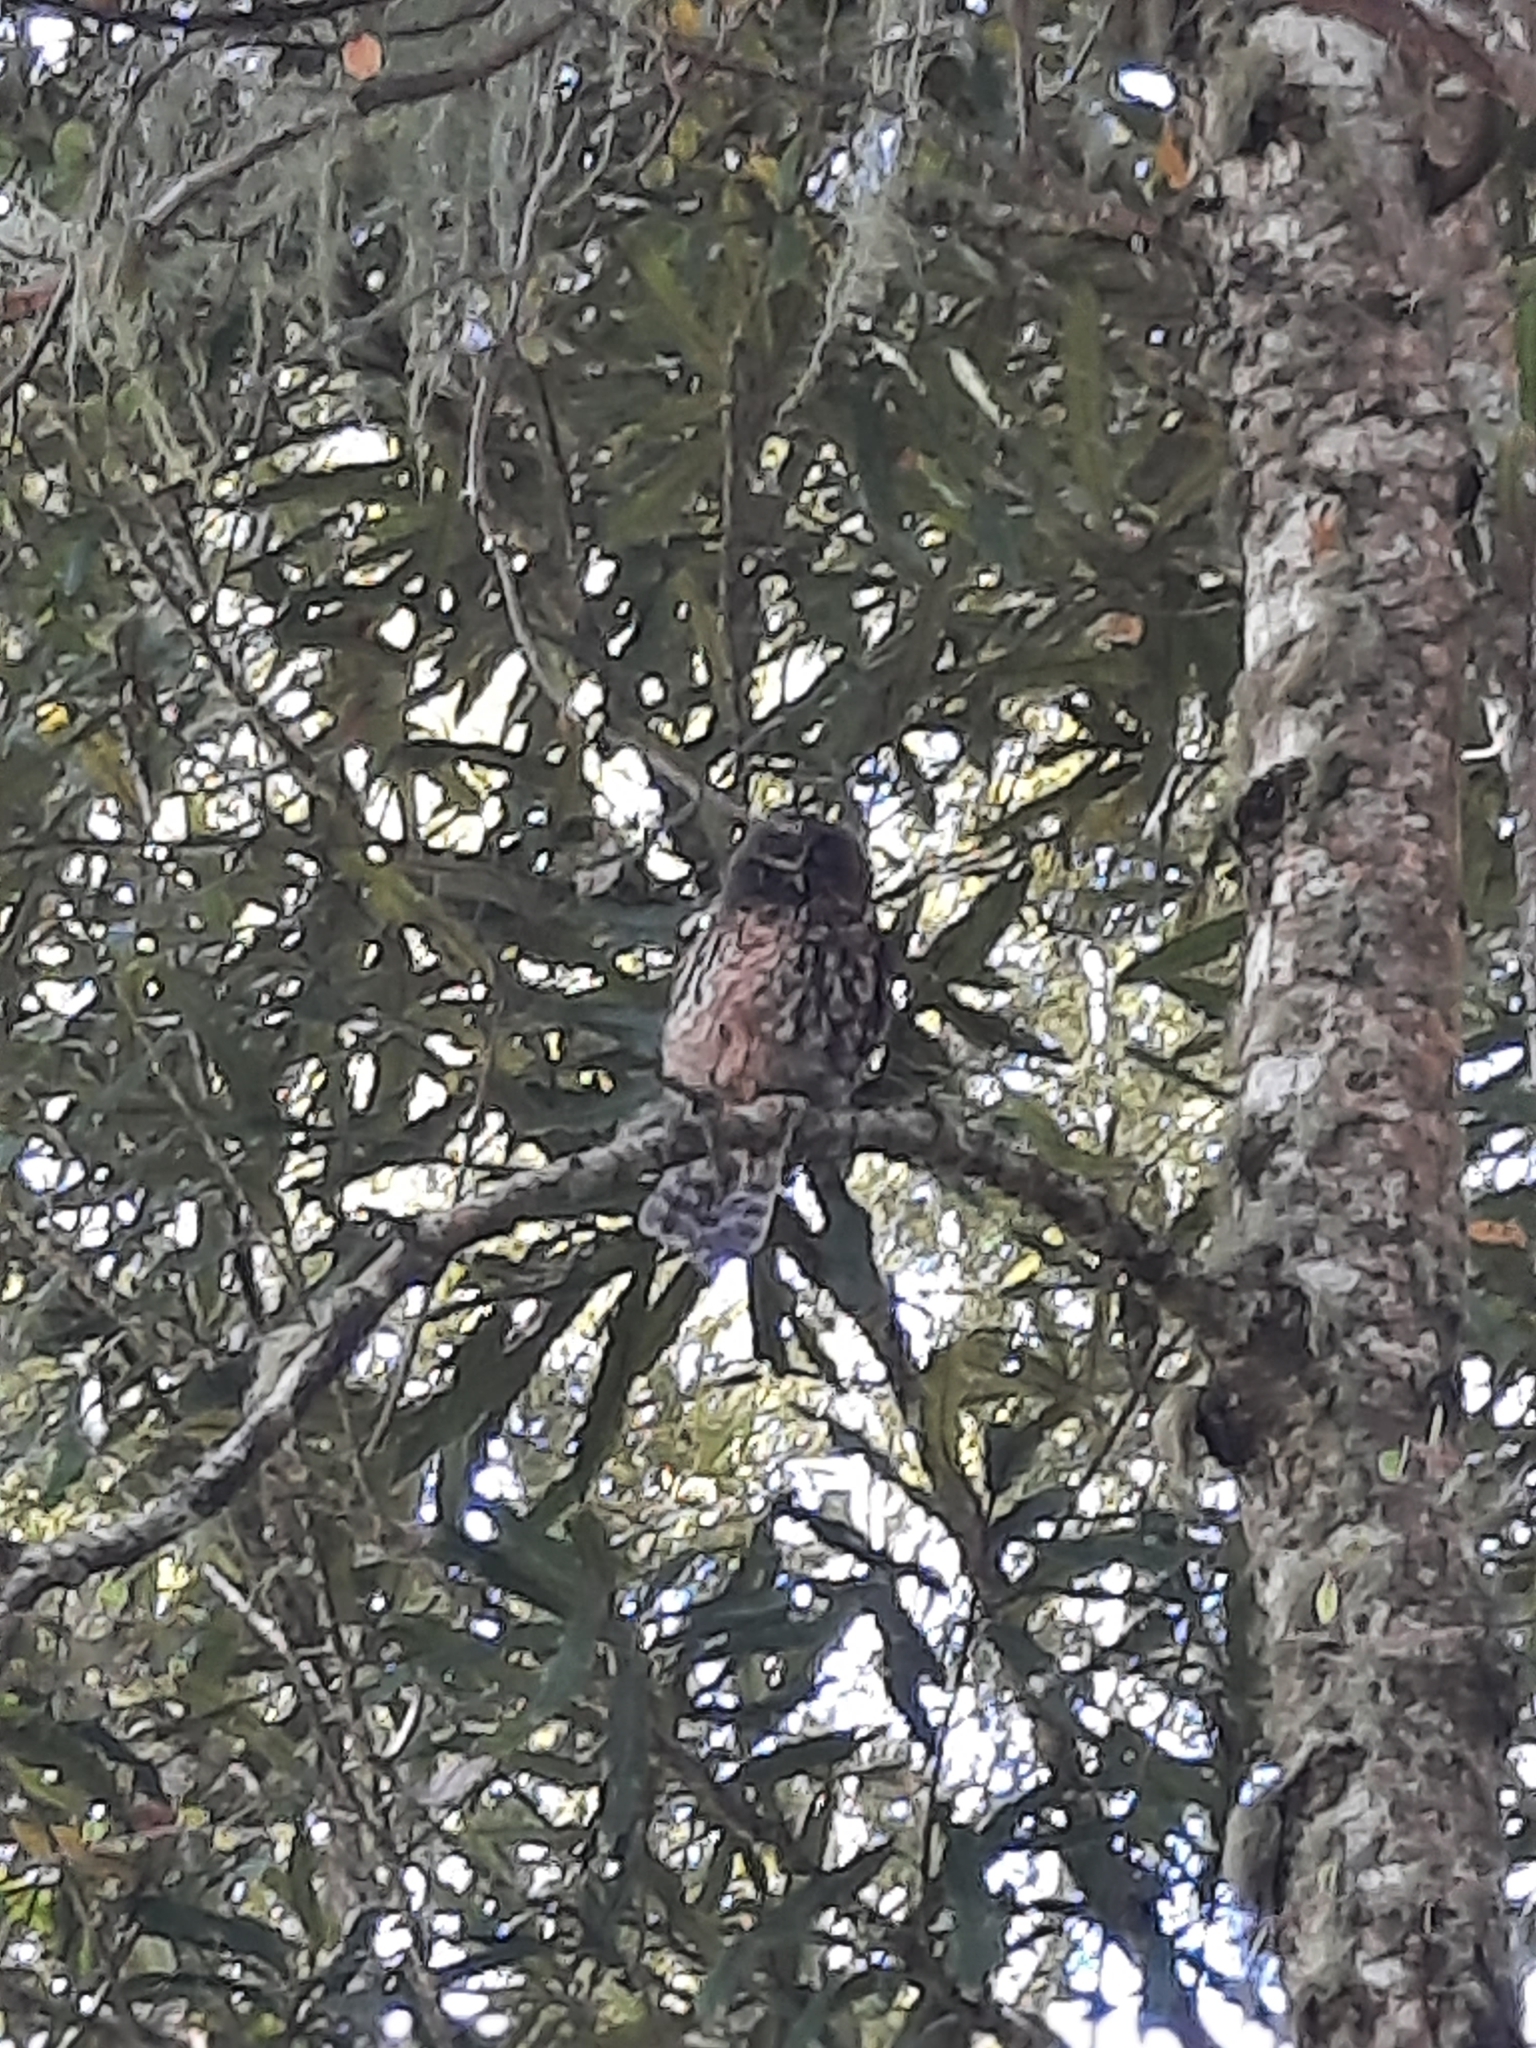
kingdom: Animalia
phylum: Chordata
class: Aves
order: Strigiformes
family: Strigidae
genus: Ninox
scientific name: Ninox novaeseelandiae
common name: Morepork
